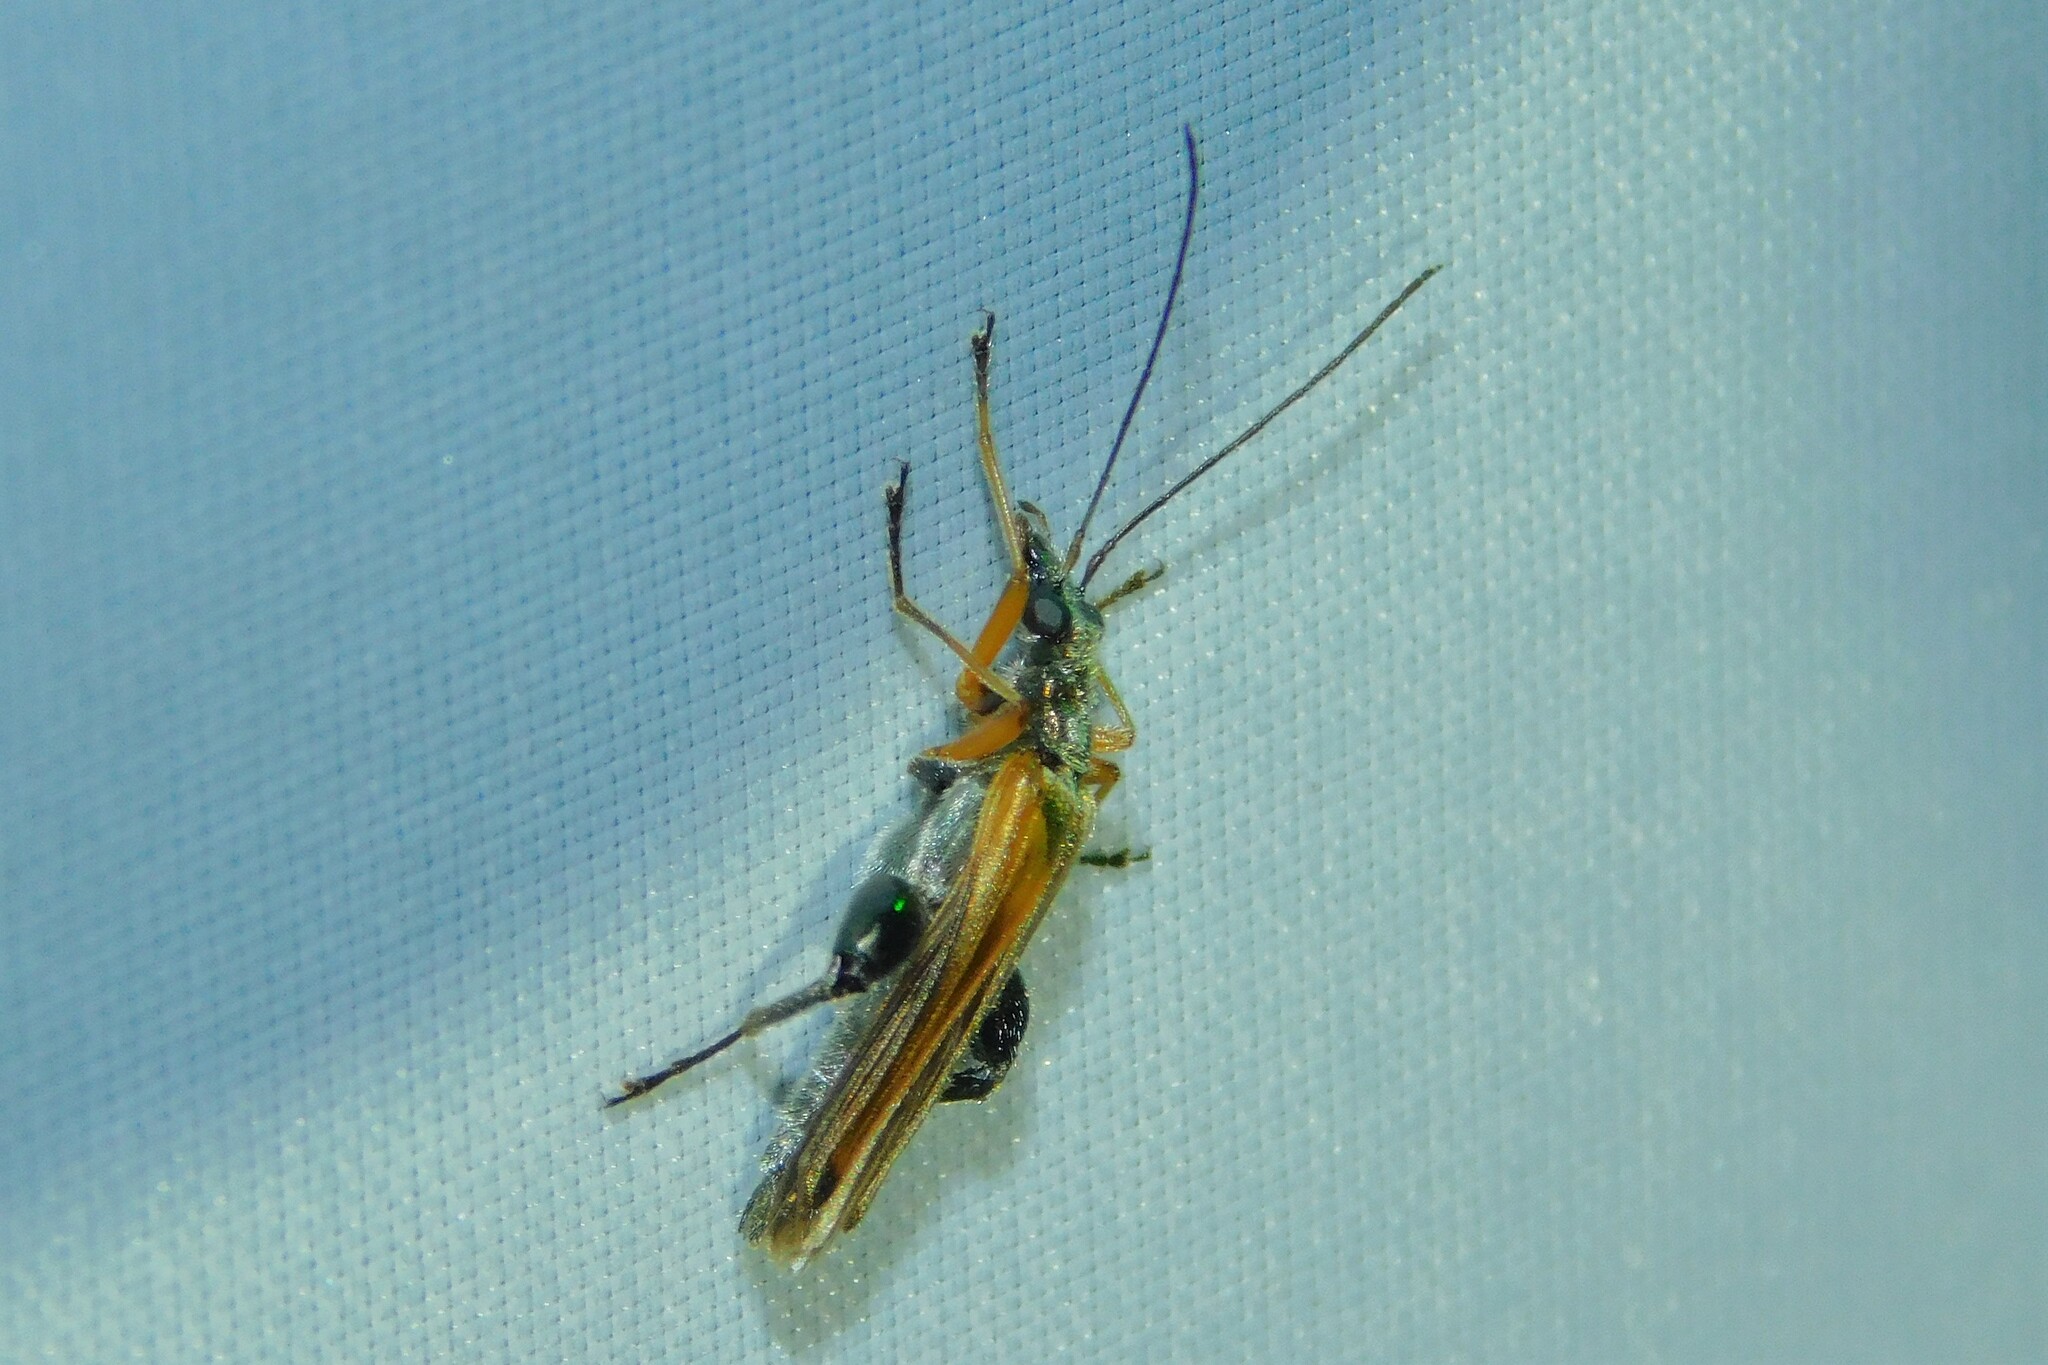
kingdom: Animalia
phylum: Arthropoda
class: Insecta
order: Coleoptera
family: Oedemeridae
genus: Oedemera
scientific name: Oedemera podagrariae
